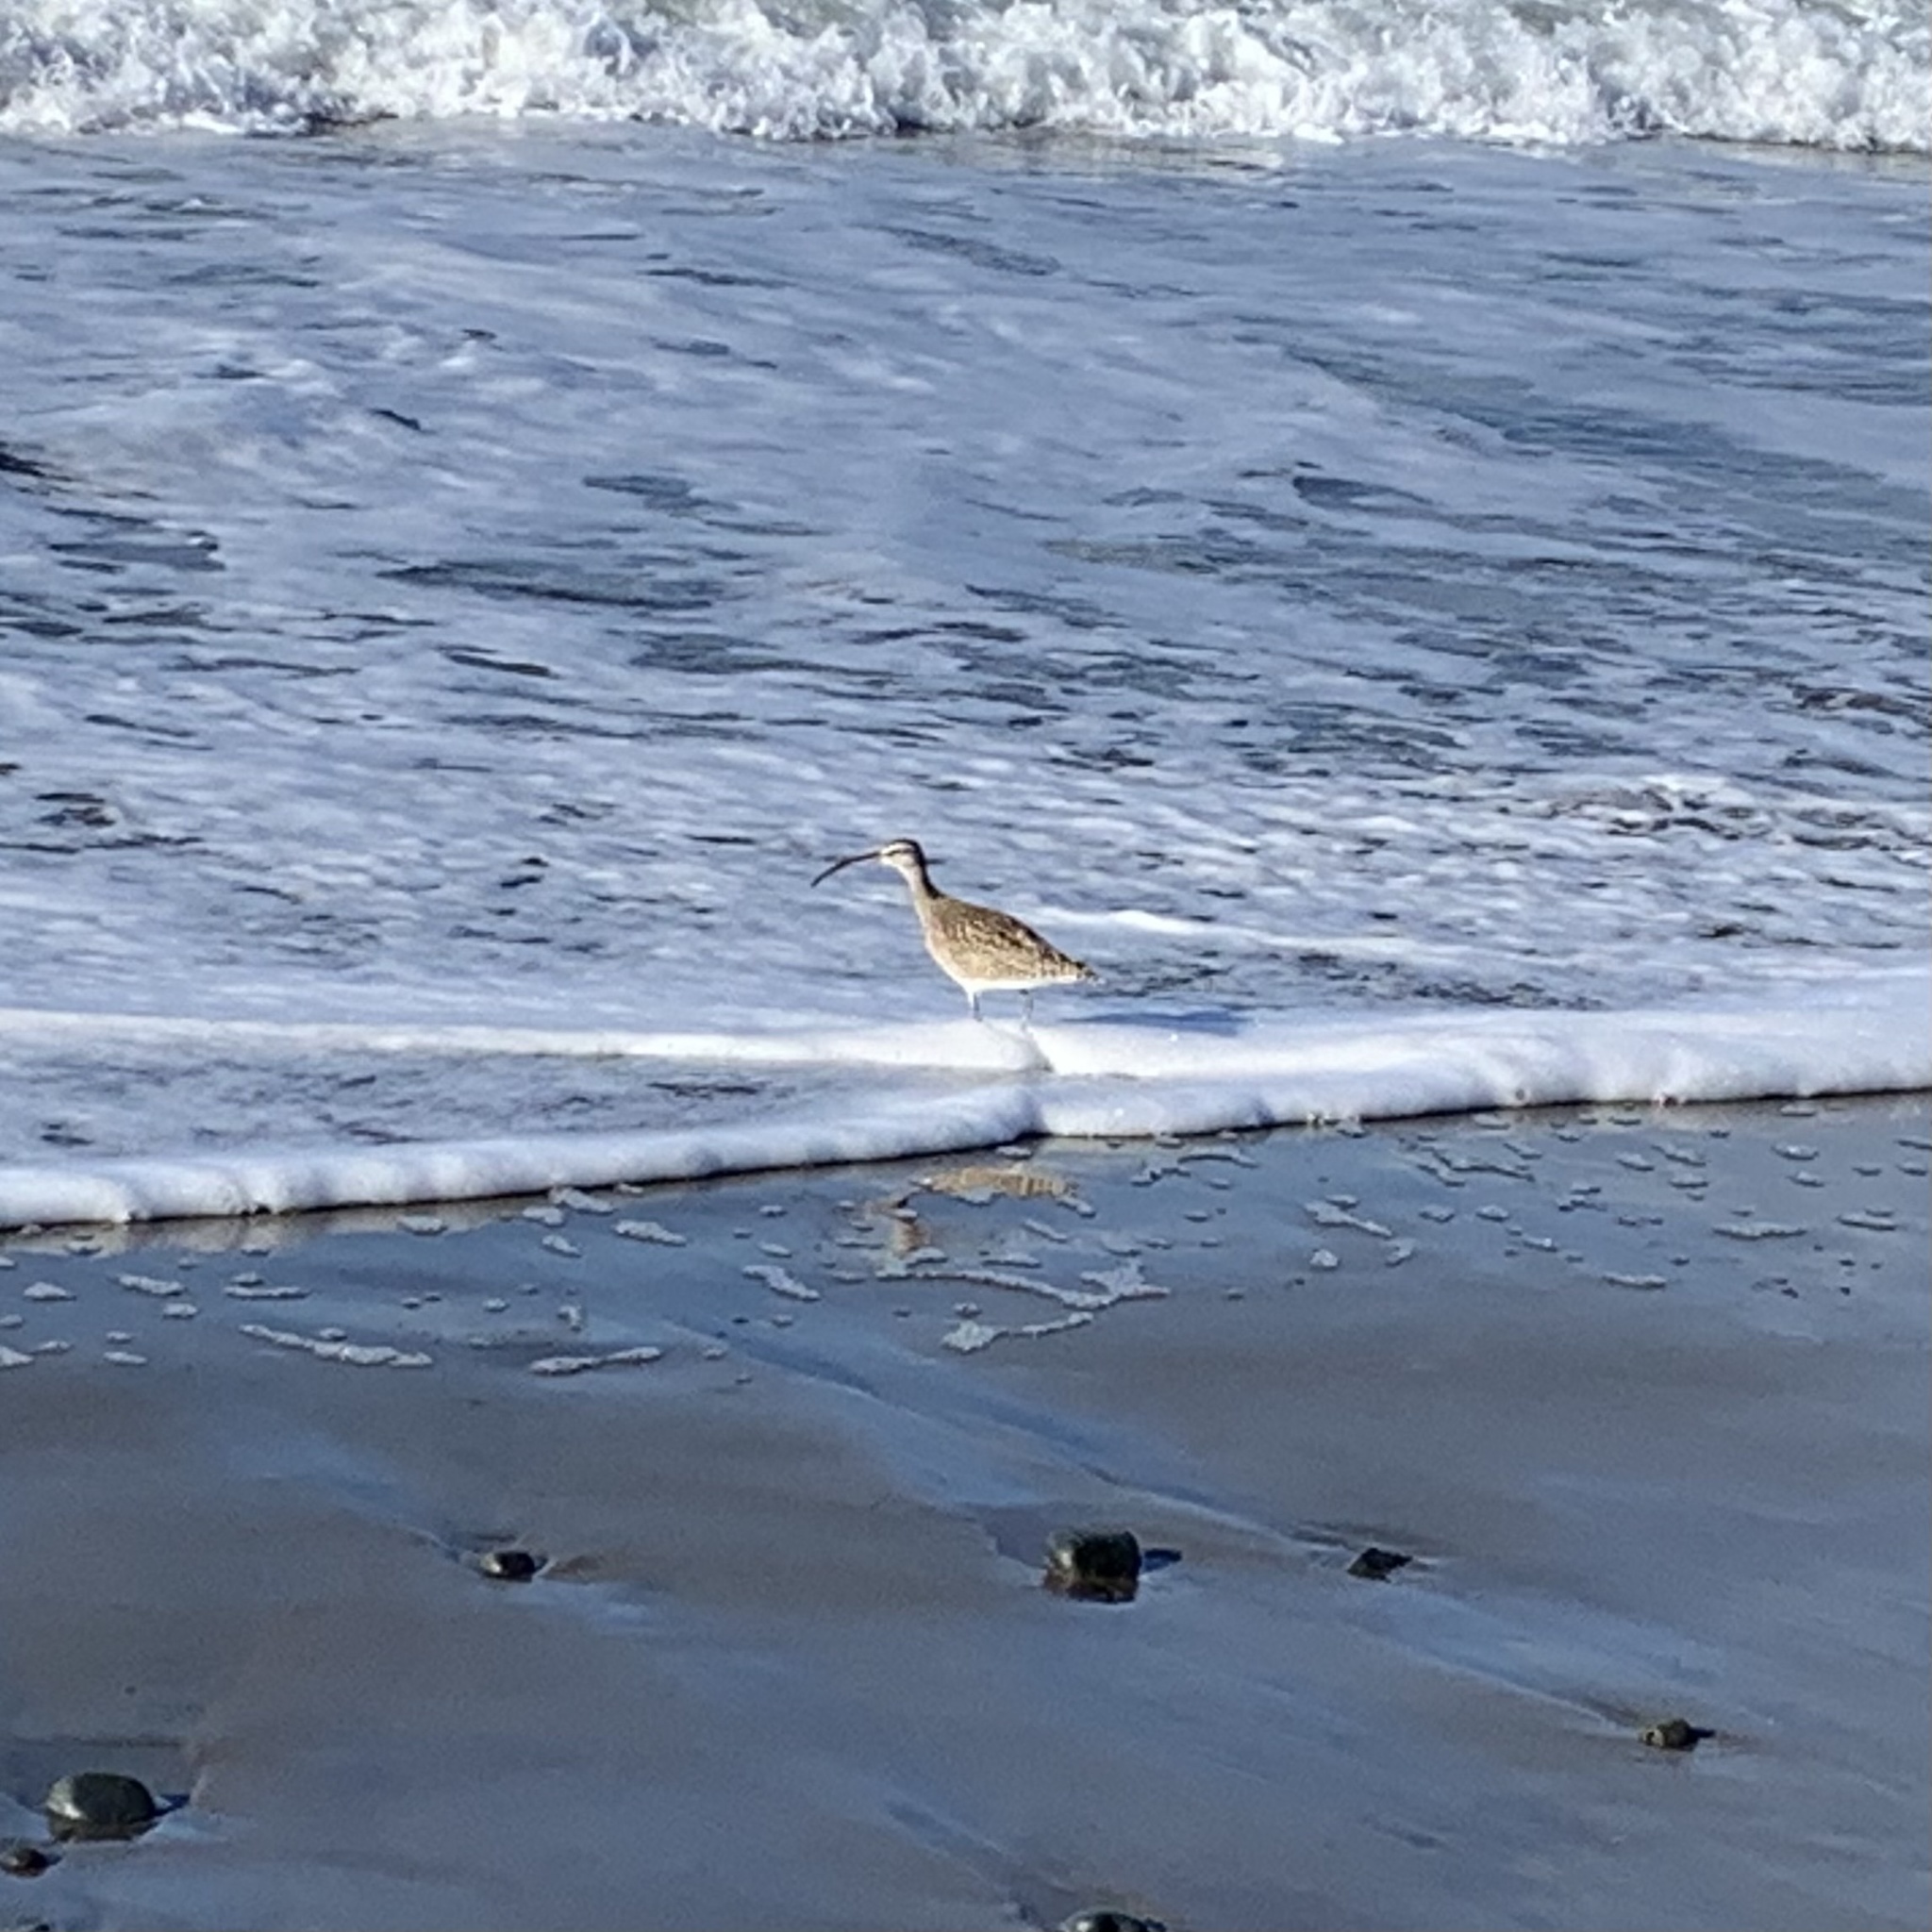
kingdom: Animalia
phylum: Chordata
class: Aves
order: Charadriiformes
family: Scolopacidae
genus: Numenius
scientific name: Numenius phaeopus
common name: Whimbrel
